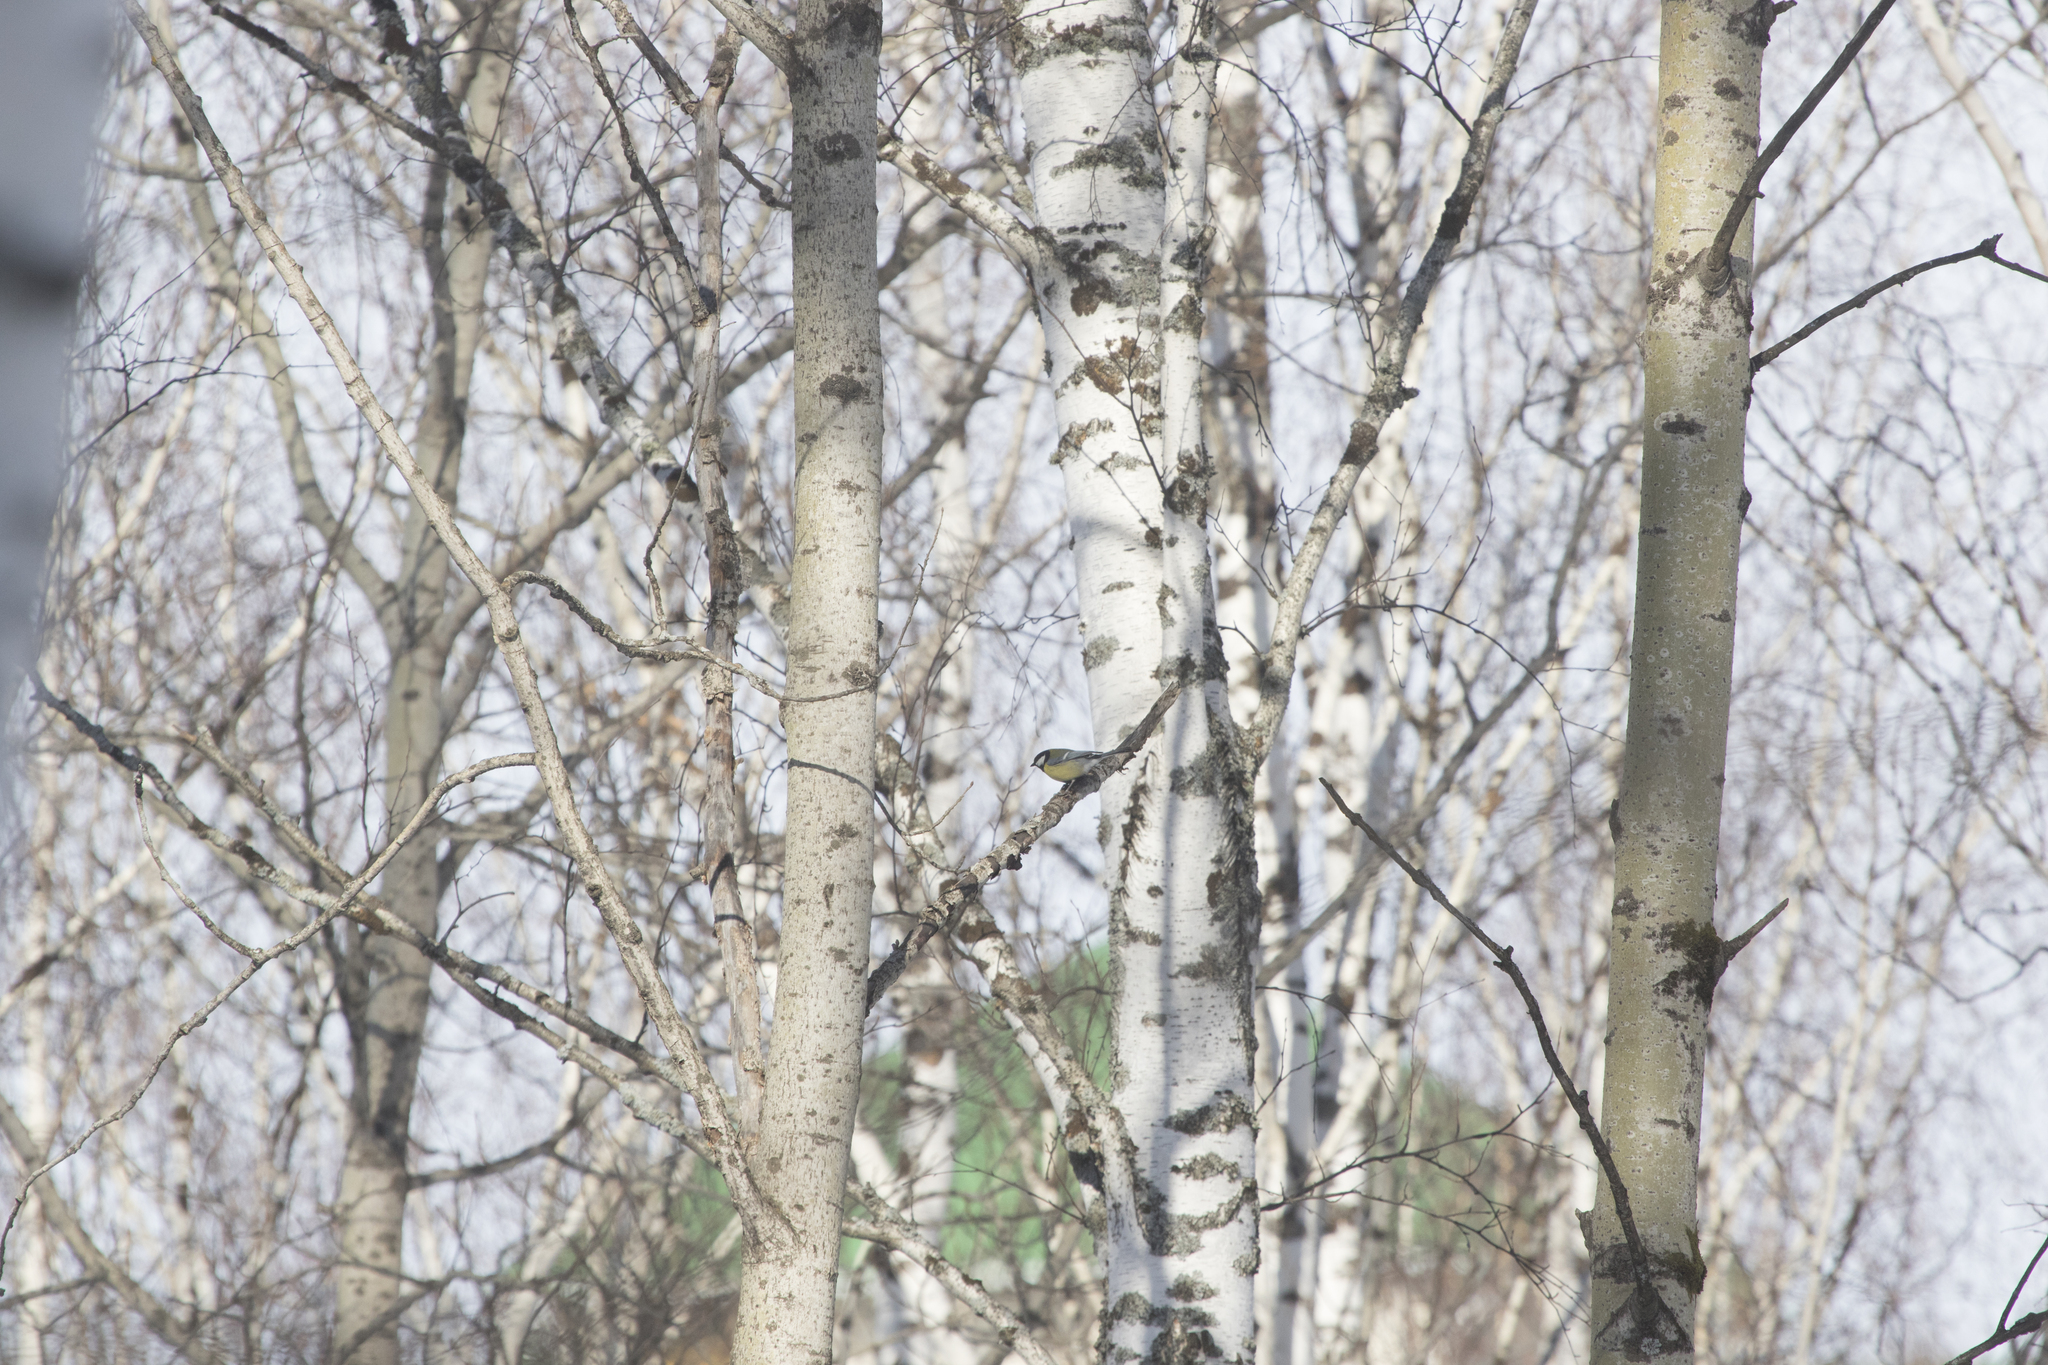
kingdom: Animalia
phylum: Chordata
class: Aves
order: Passeriformes
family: Paridae
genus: Parus
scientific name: Parus major
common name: Great tit
